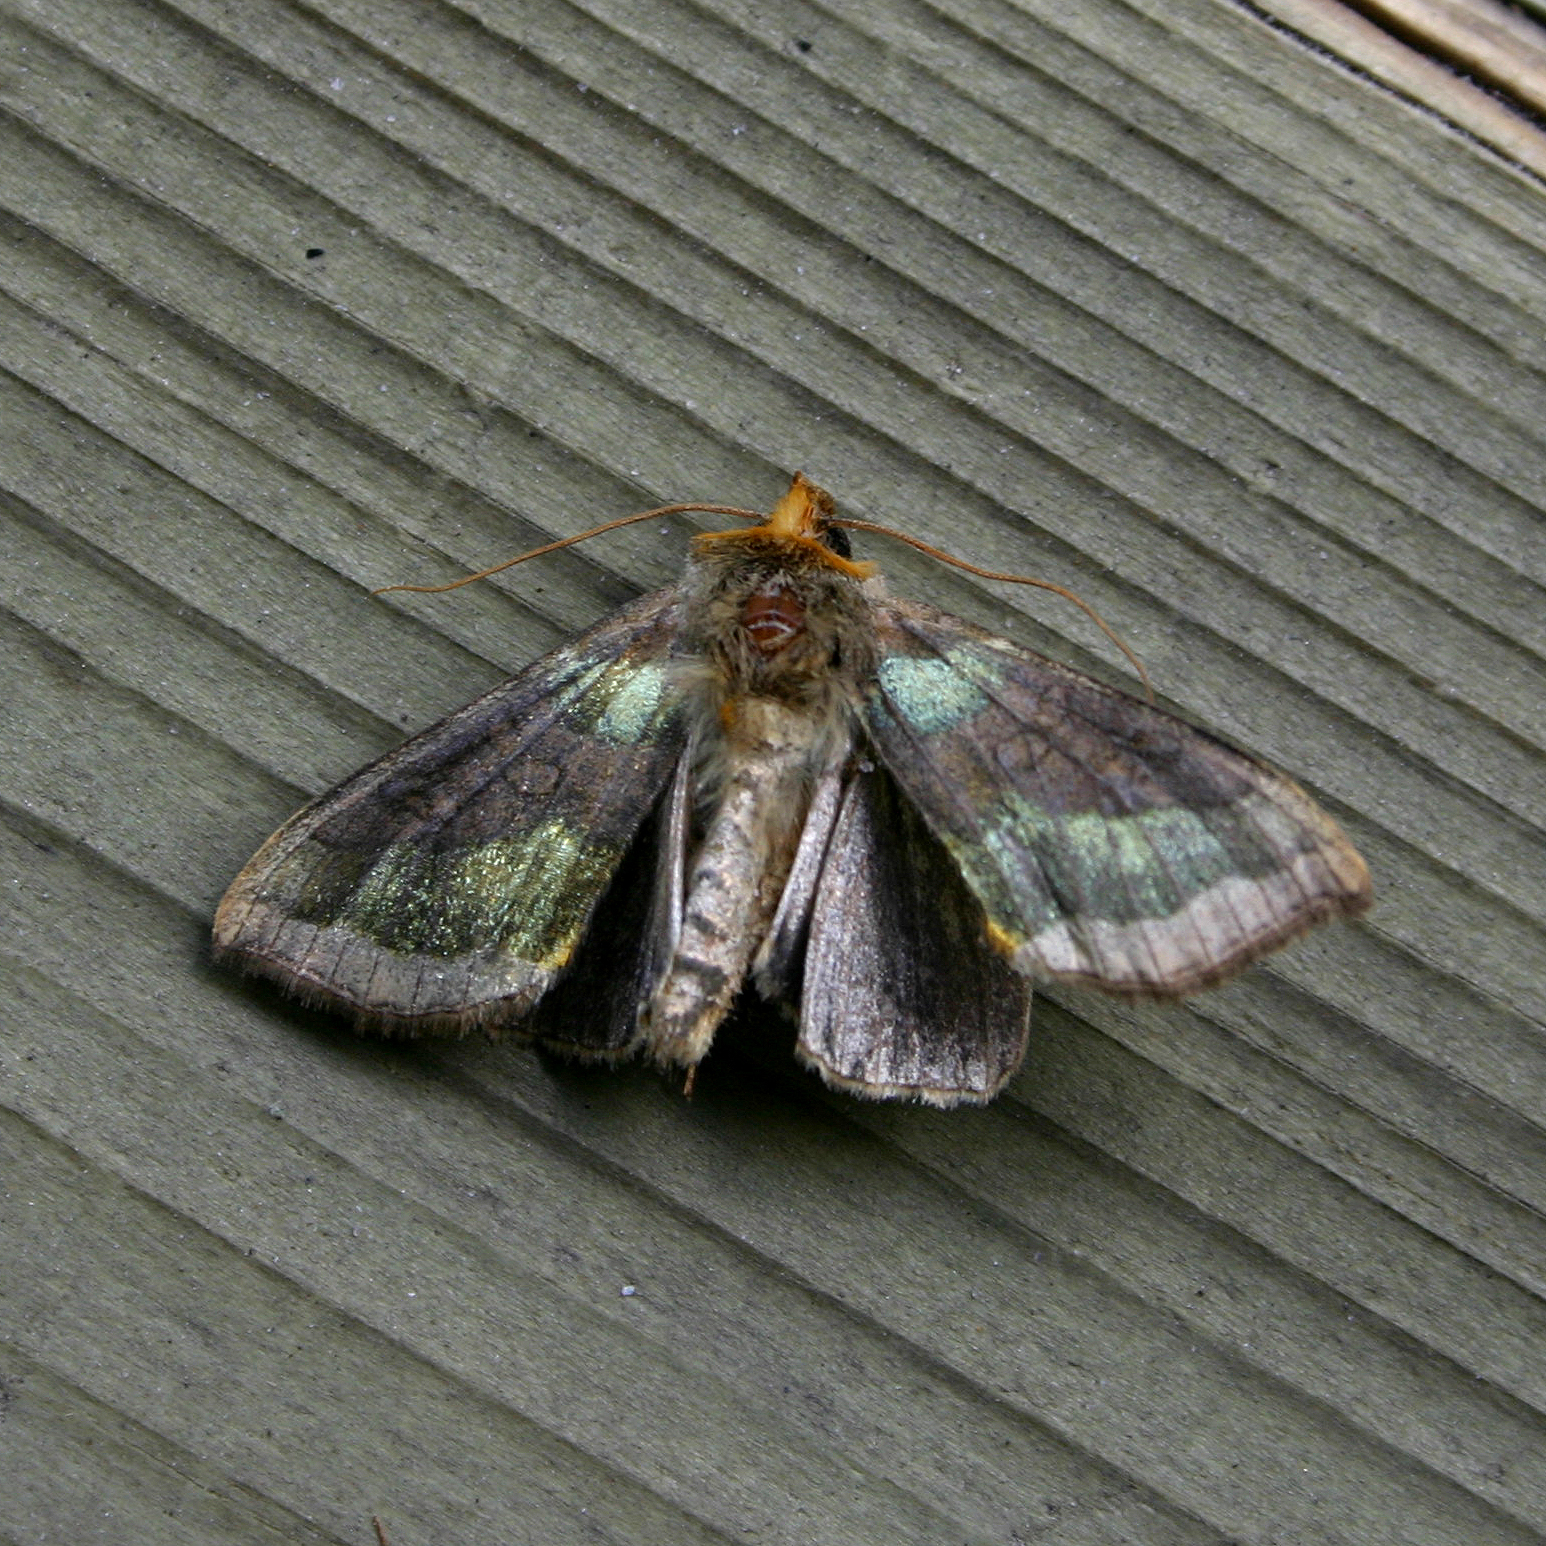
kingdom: Animalia
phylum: Arthropoda
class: Insecta
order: Lepidoptera
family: Noctuidae
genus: Diachrysia
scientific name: Diachrysia chrysitis
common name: Burnished brass
